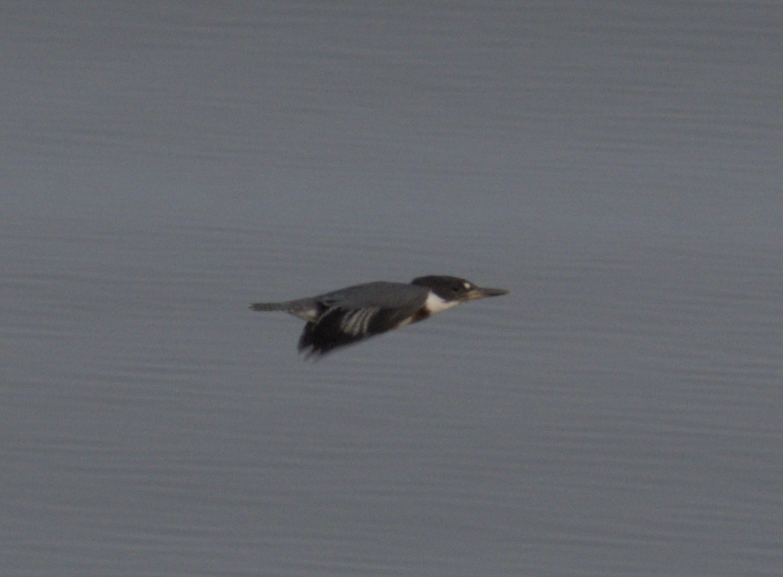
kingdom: Animalia
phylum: Chordata
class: Aves
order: Coraciiformes
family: Alcedinidae
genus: Megaceryle
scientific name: Megaceryle alcyon
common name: Belted kingfisher
